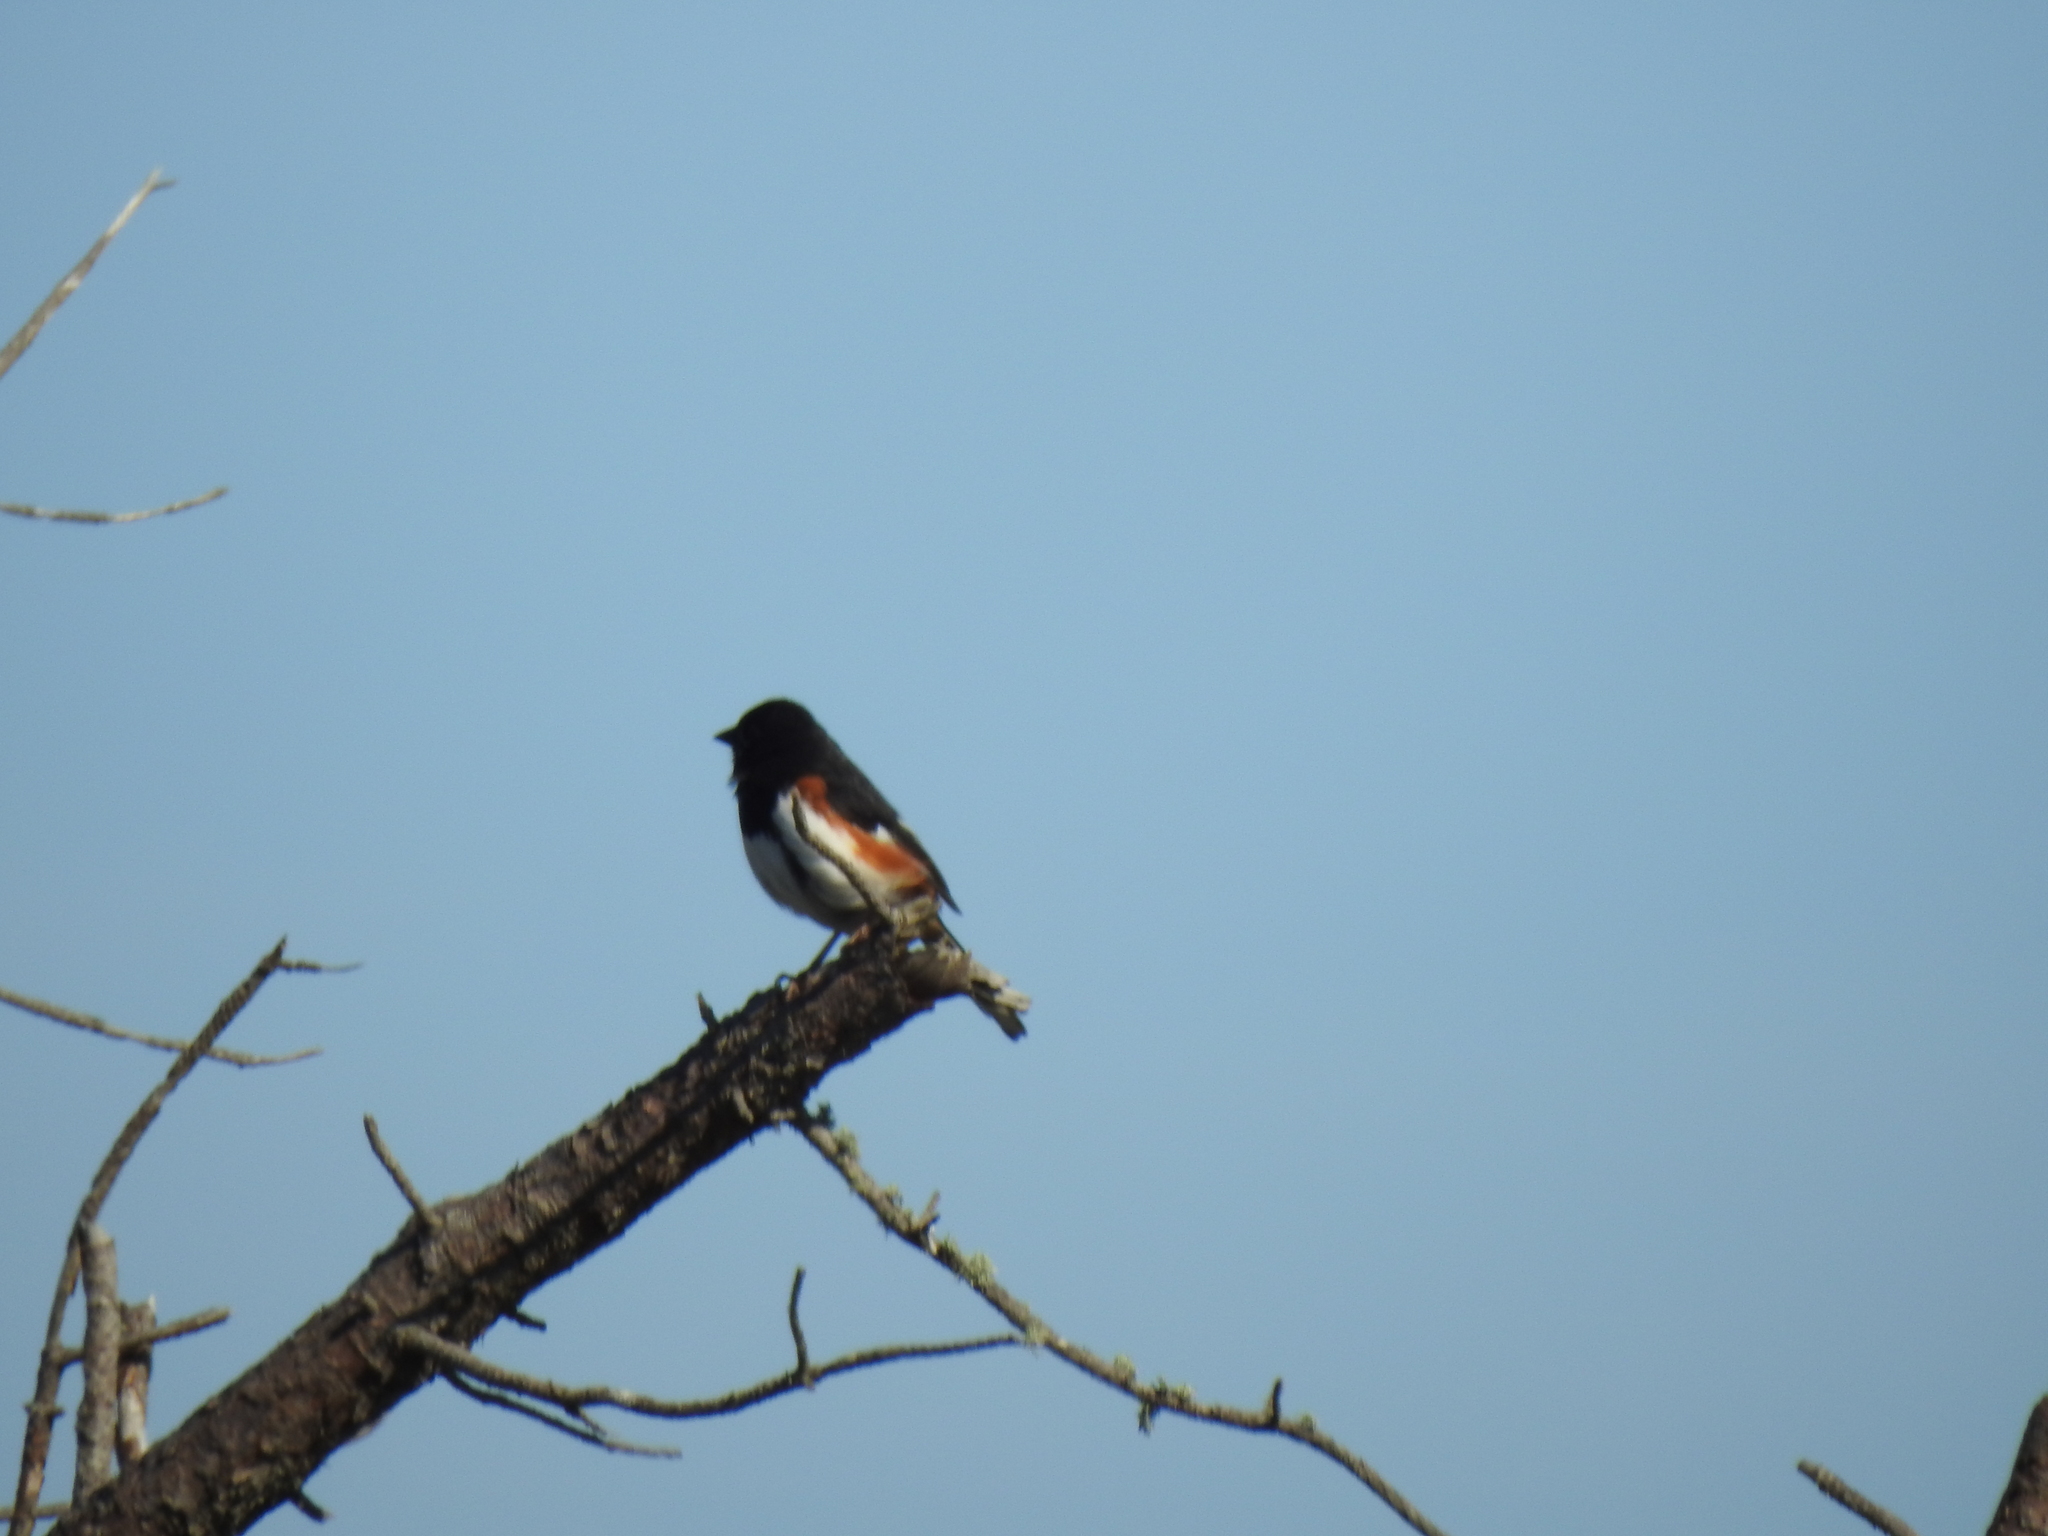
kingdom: Animalia
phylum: Chordata
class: Aves
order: Passeriformes
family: Passerellidae
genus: Pipilo
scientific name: Pipilo erythrophthalmus
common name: Eastern towhee
